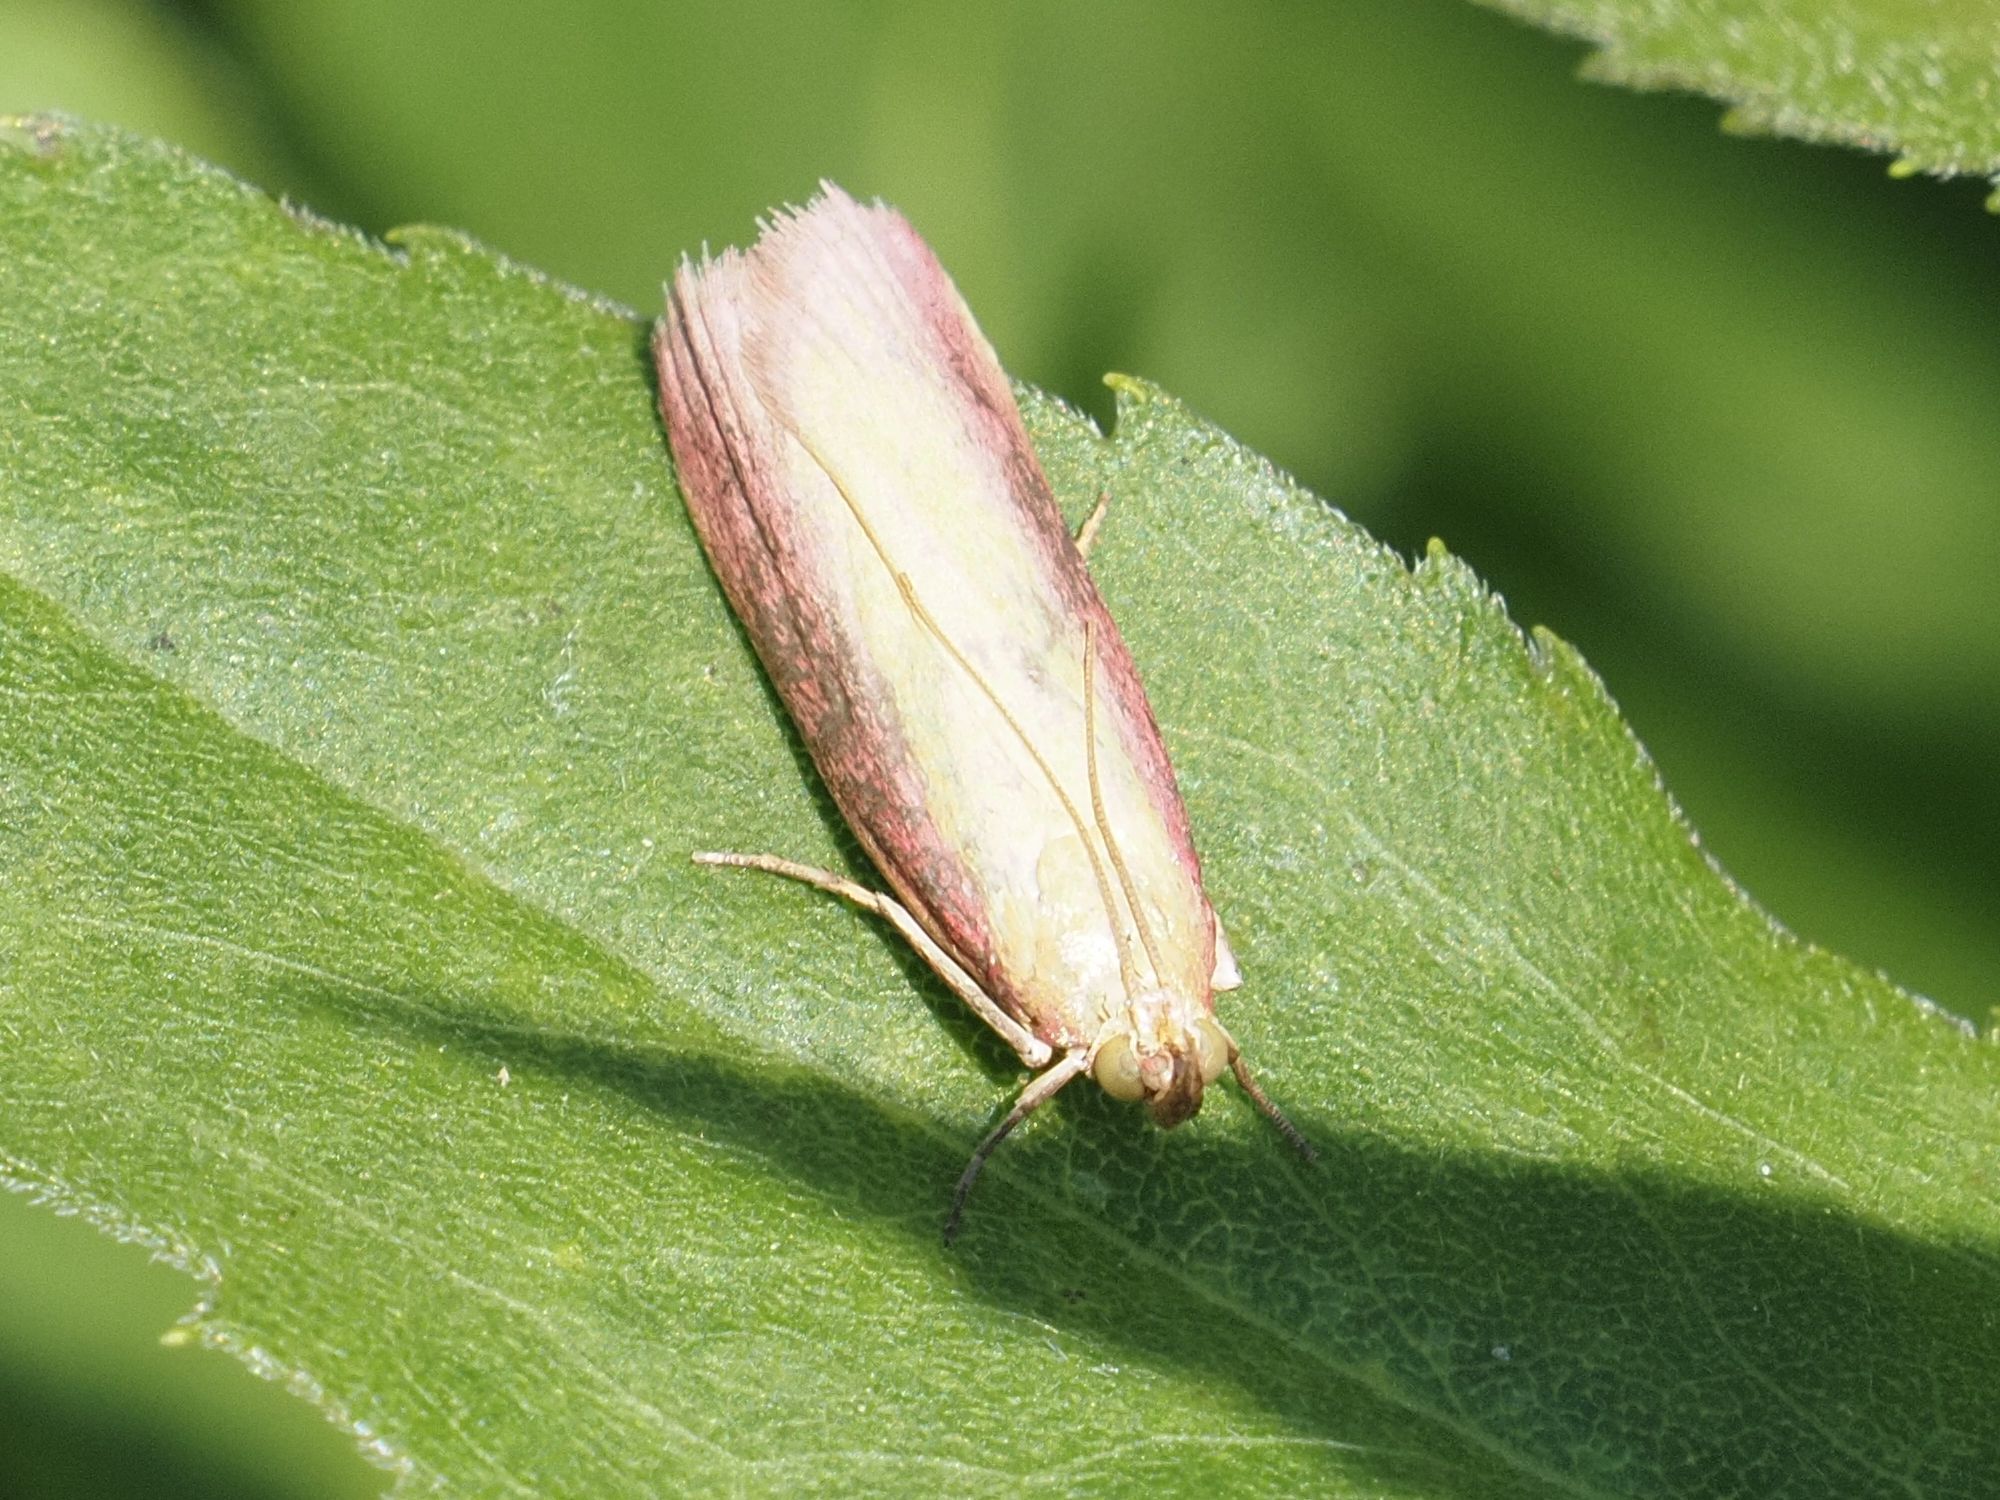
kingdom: Animalia
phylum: Arthropoda
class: Insecta
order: Lepidoptera
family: Pyralidae
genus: Oncocera
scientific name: Oncocera semirubella
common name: Rosy-striped knot-horn
